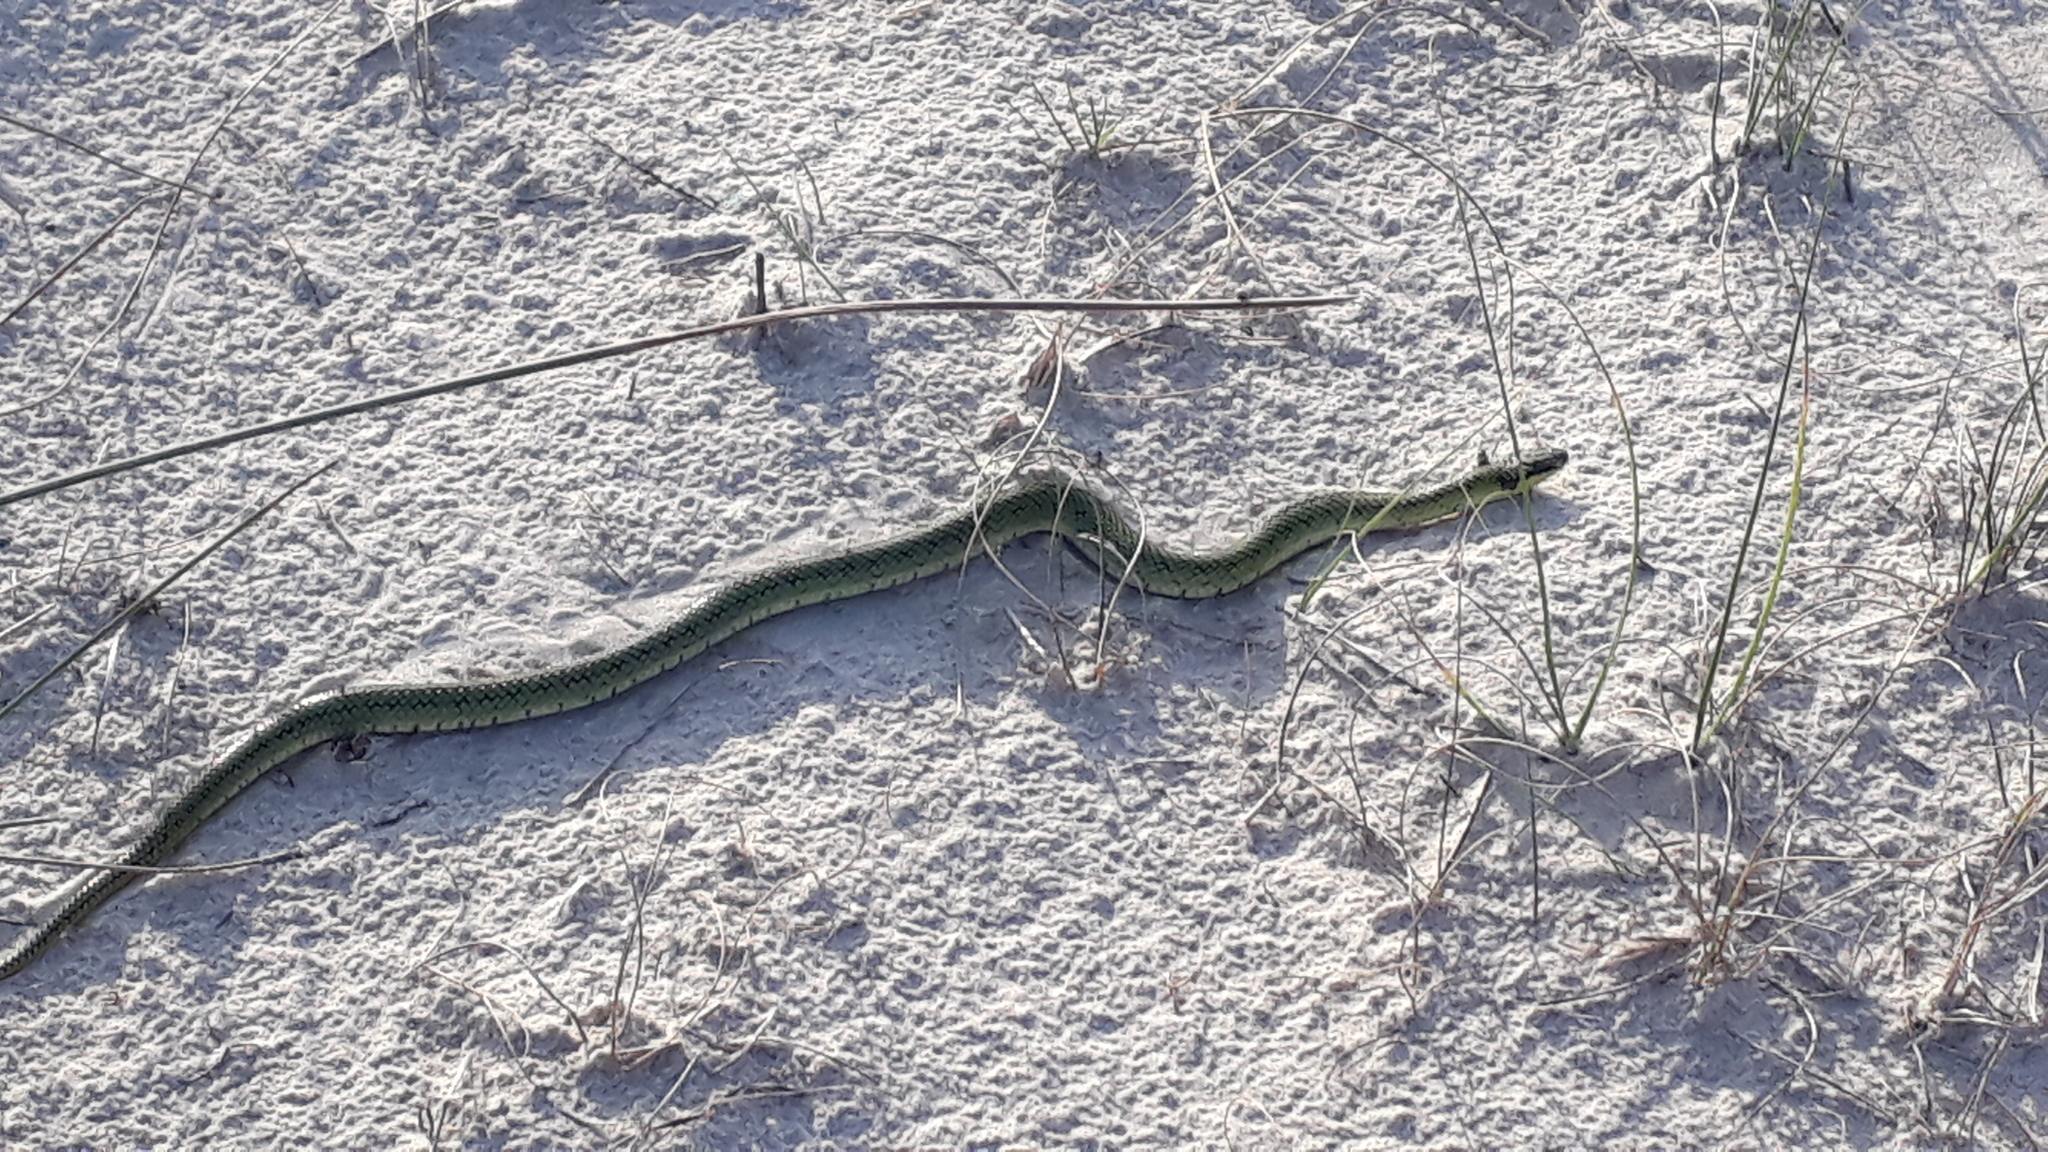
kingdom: Animalia
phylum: Chordata
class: Squamata
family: Colubridae
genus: Erythrolamprus
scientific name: Erythrolamprus poecilogyrus
